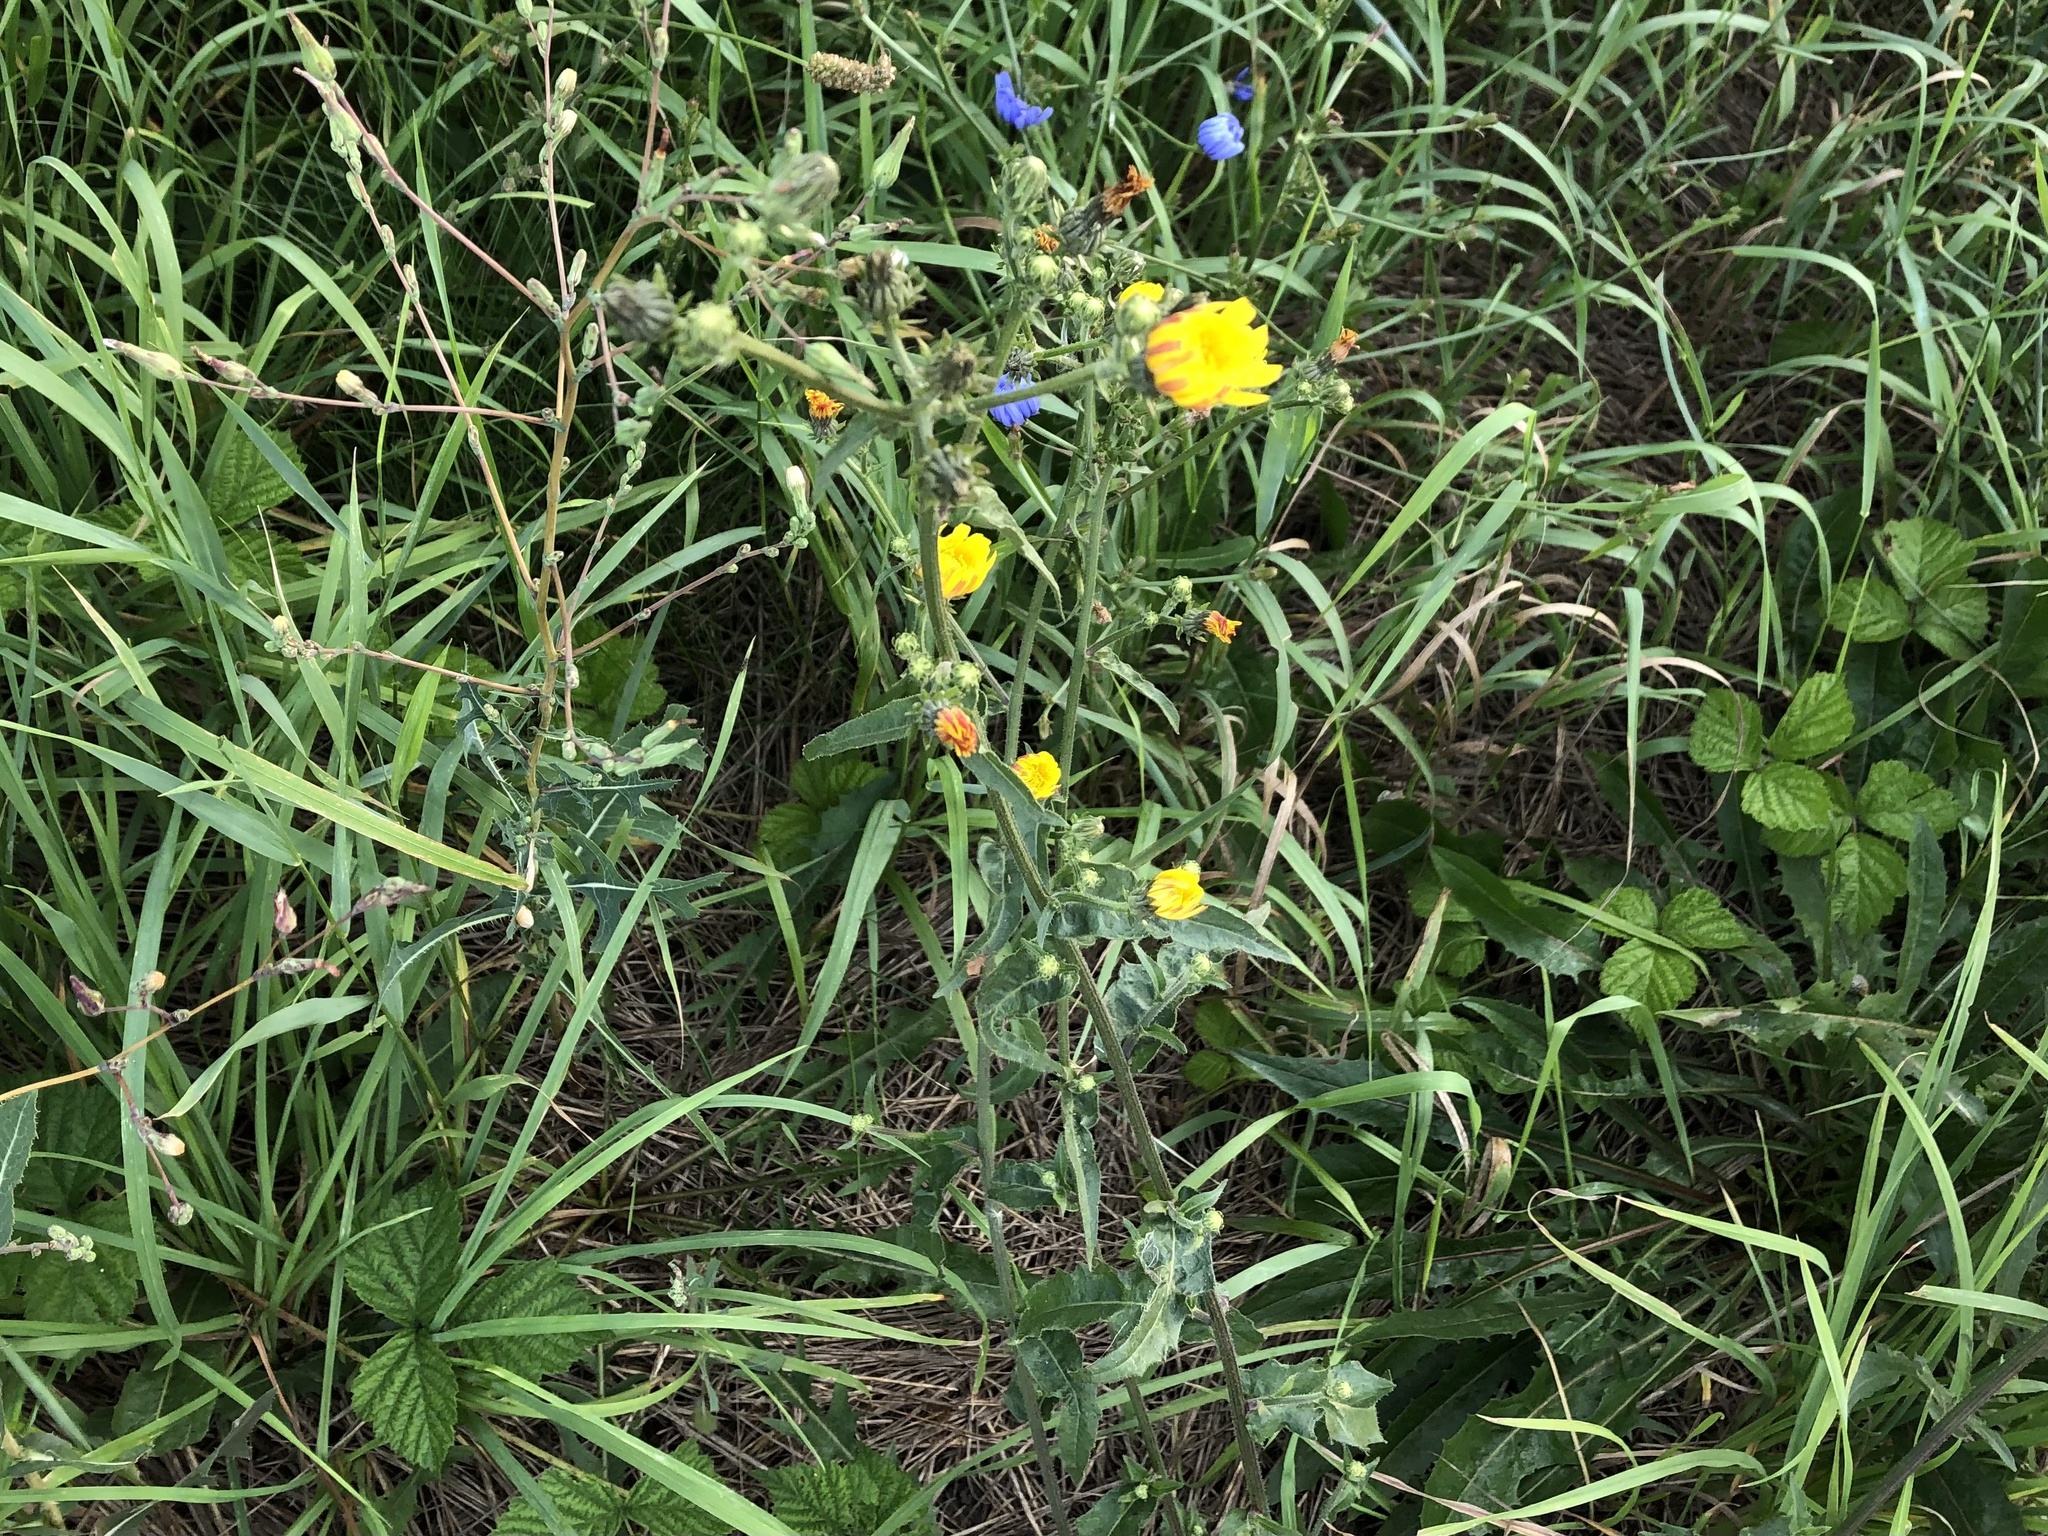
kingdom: Plantae
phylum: Tracheophyta
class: Magnoliopsida
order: Asterales
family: Asteraceae
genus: Picris
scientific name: Picris hieracioides
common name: Hawkweed oxtongue
